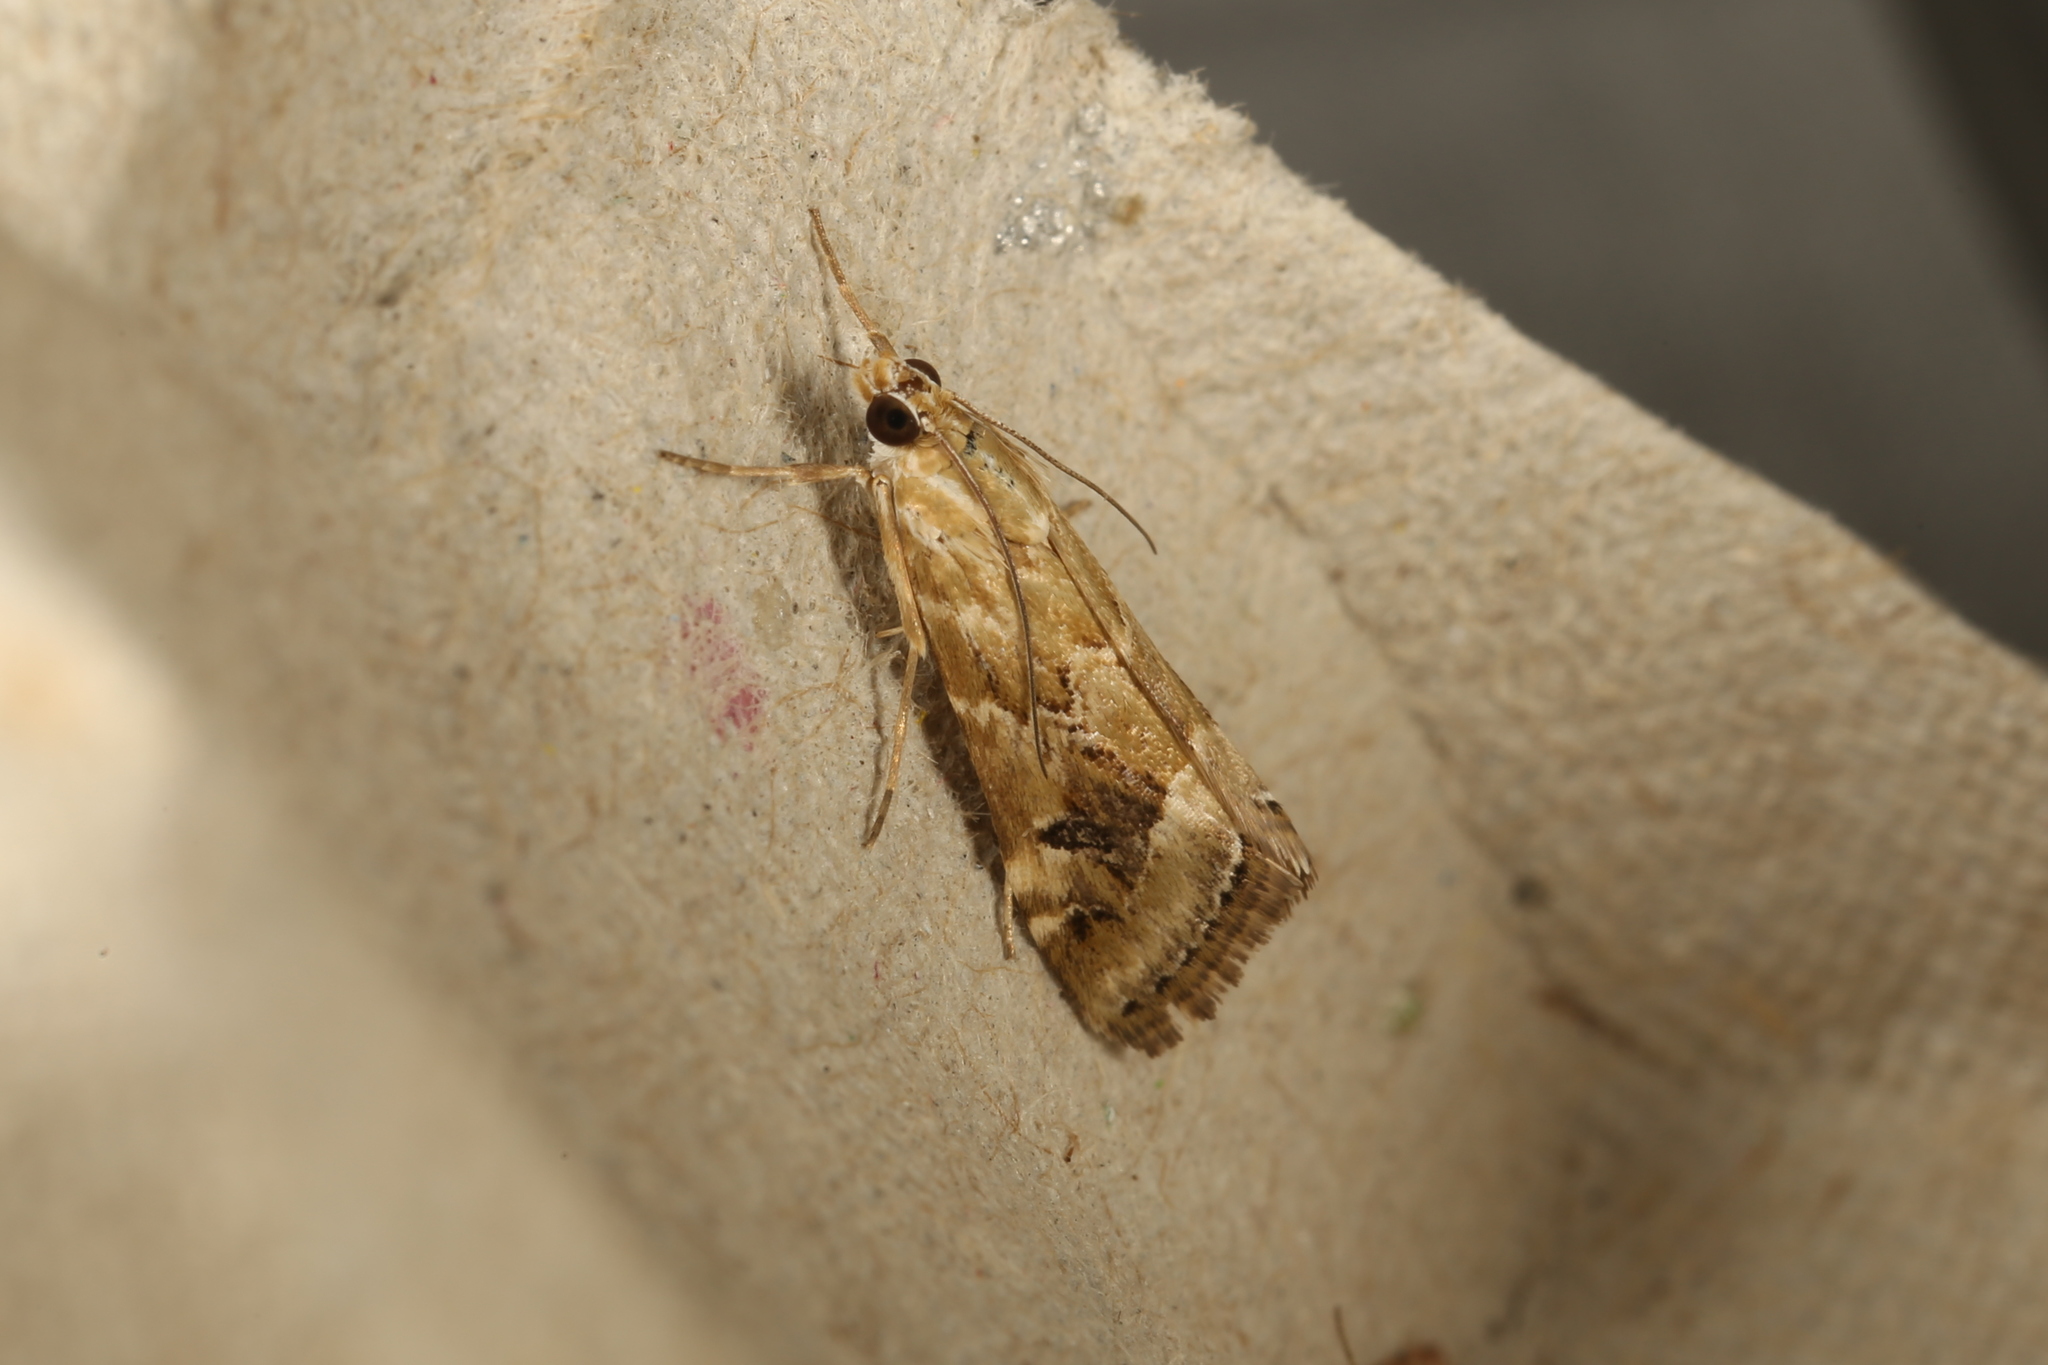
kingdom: Animalia
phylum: Arthropoda
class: Insecta
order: Lepidoptera
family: Crambidae
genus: Hellula
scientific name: Hellula hydralis
